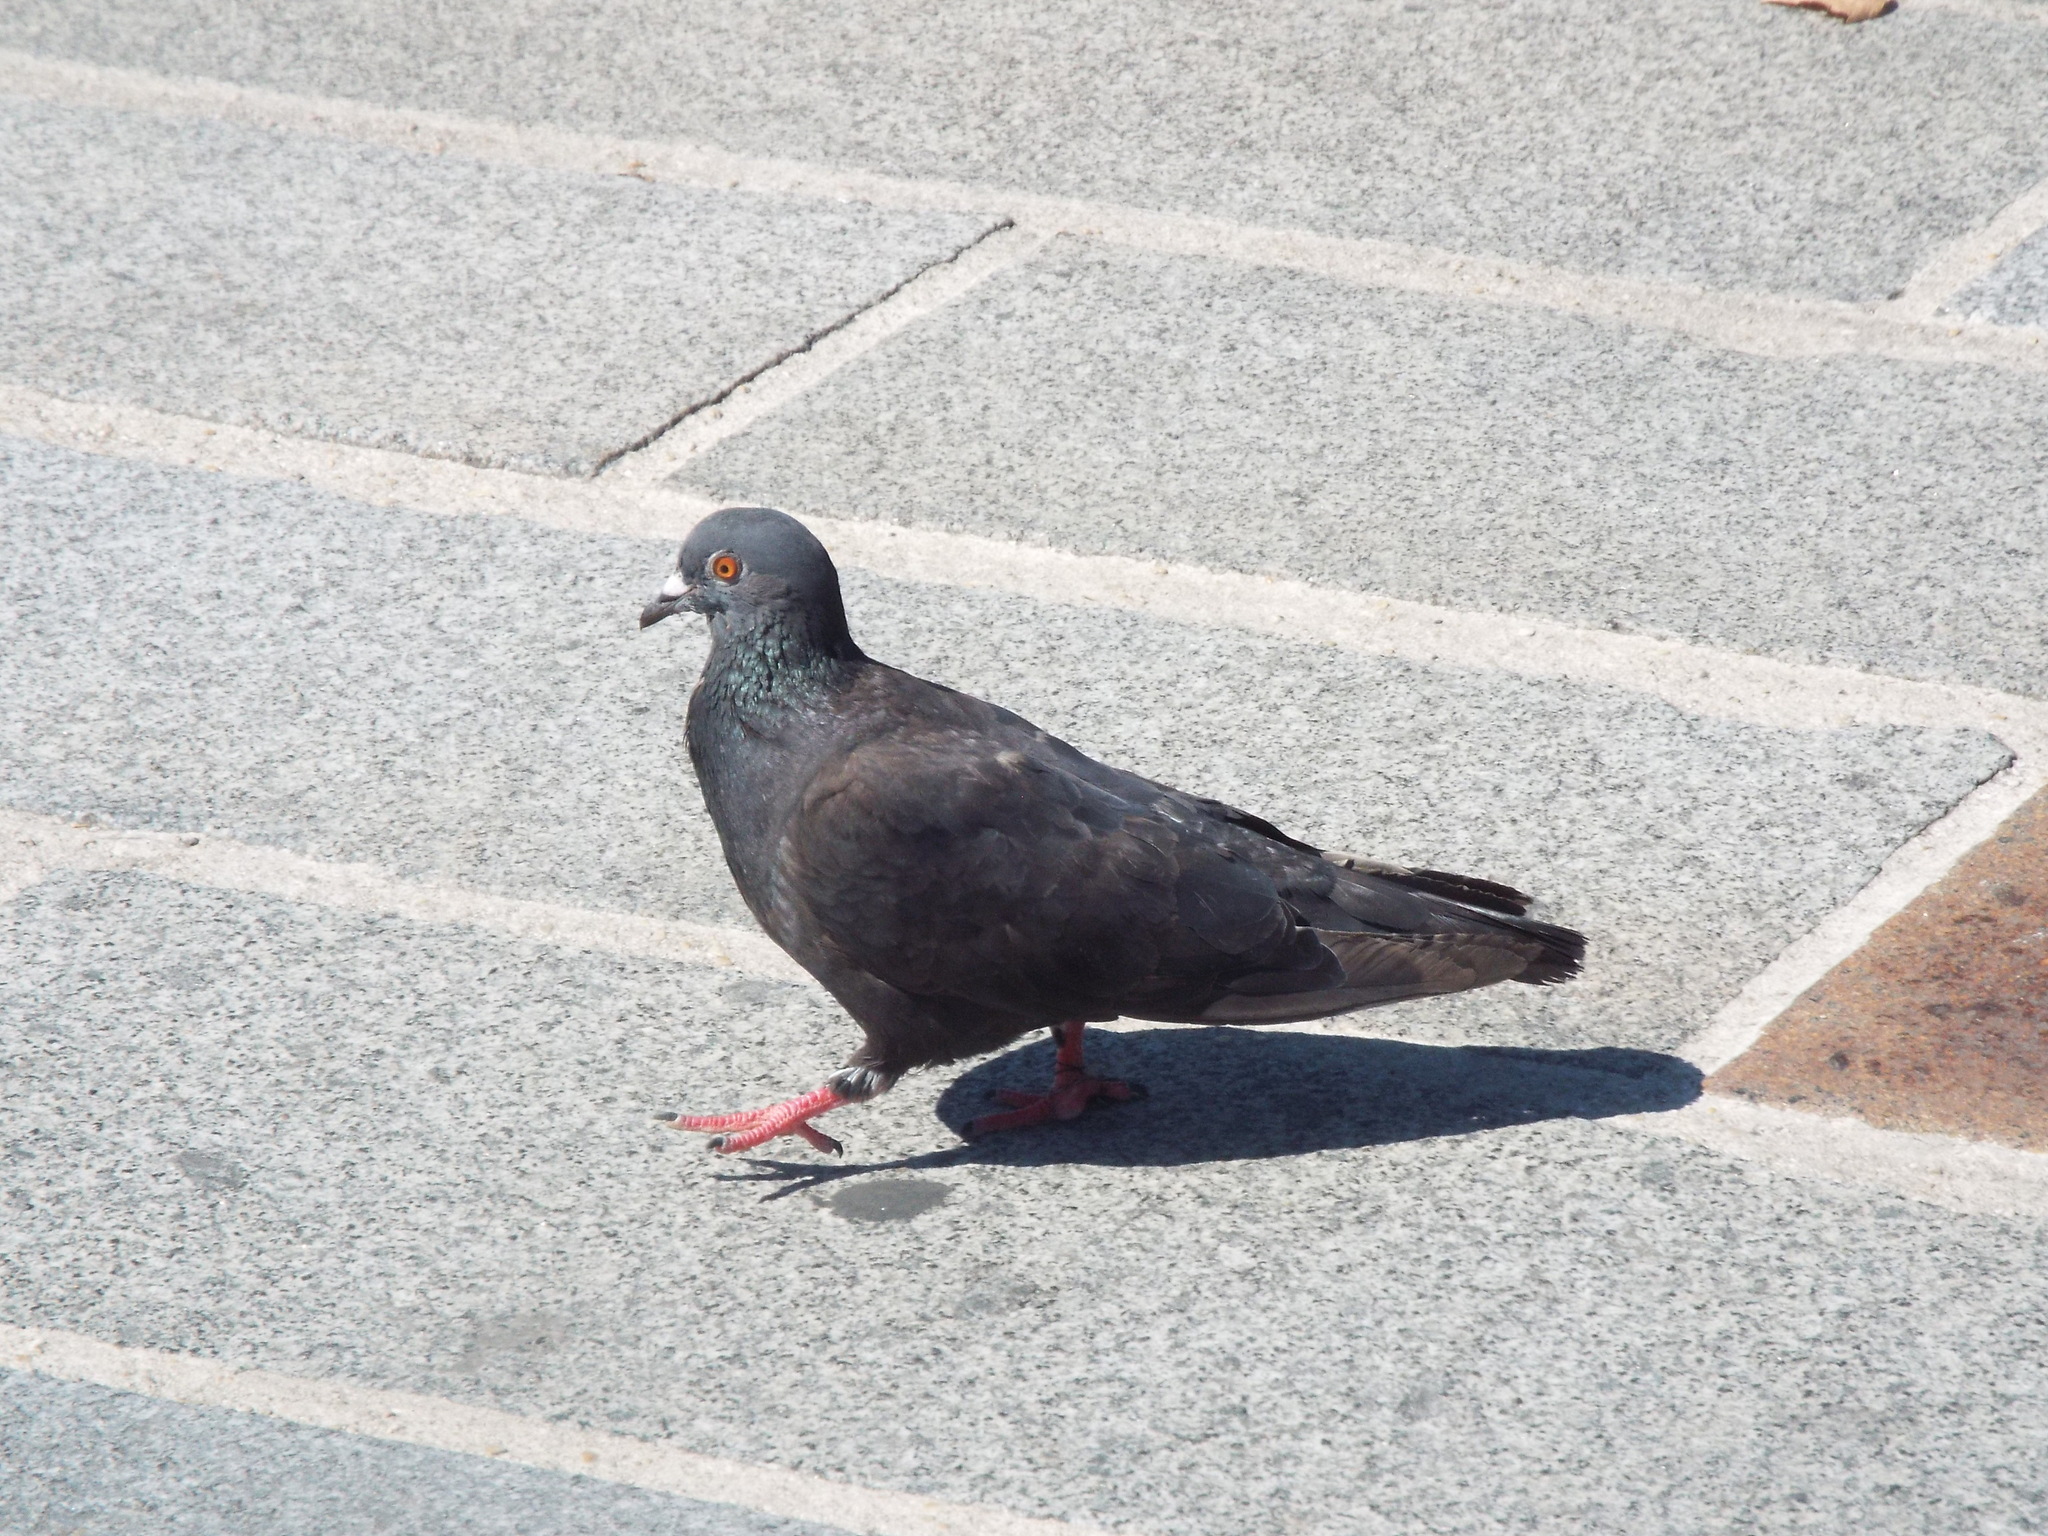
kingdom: Animalia
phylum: Chordata
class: Aves
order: Columbiformes
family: Columbidae
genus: Columba
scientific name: Columba livia
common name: Rock pigeon
